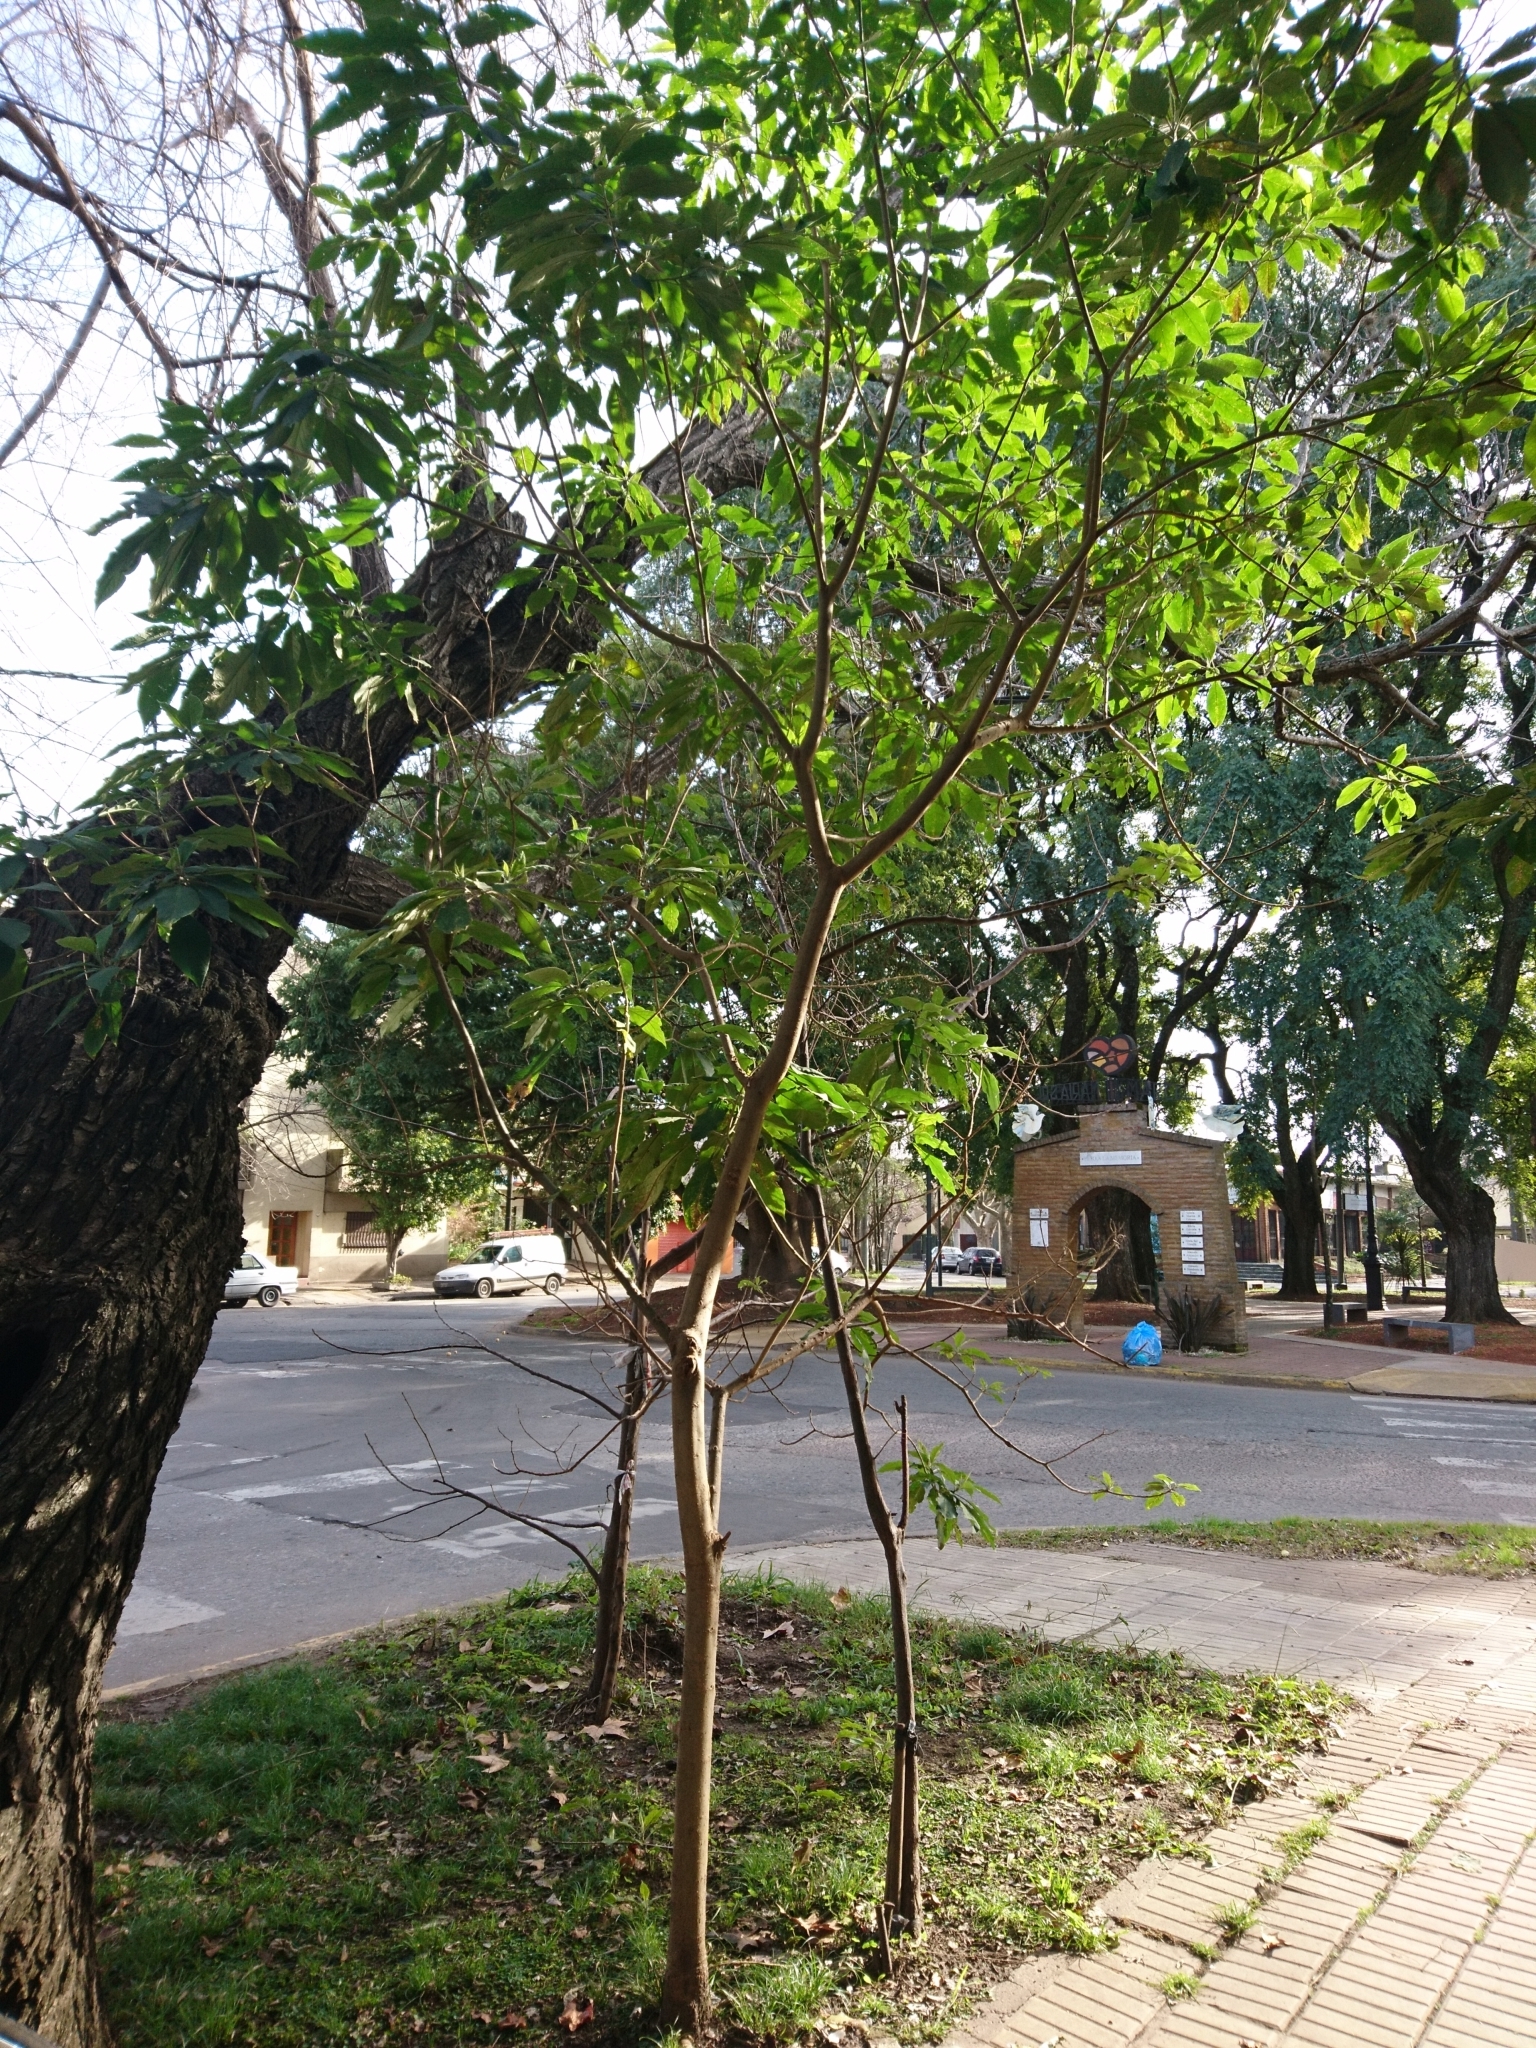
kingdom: Plantae
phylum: Tracheophyta
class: Magnoliopsida
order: Solanales
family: Solanaceae
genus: Solanum
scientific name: Solanum granulosoleprosum
